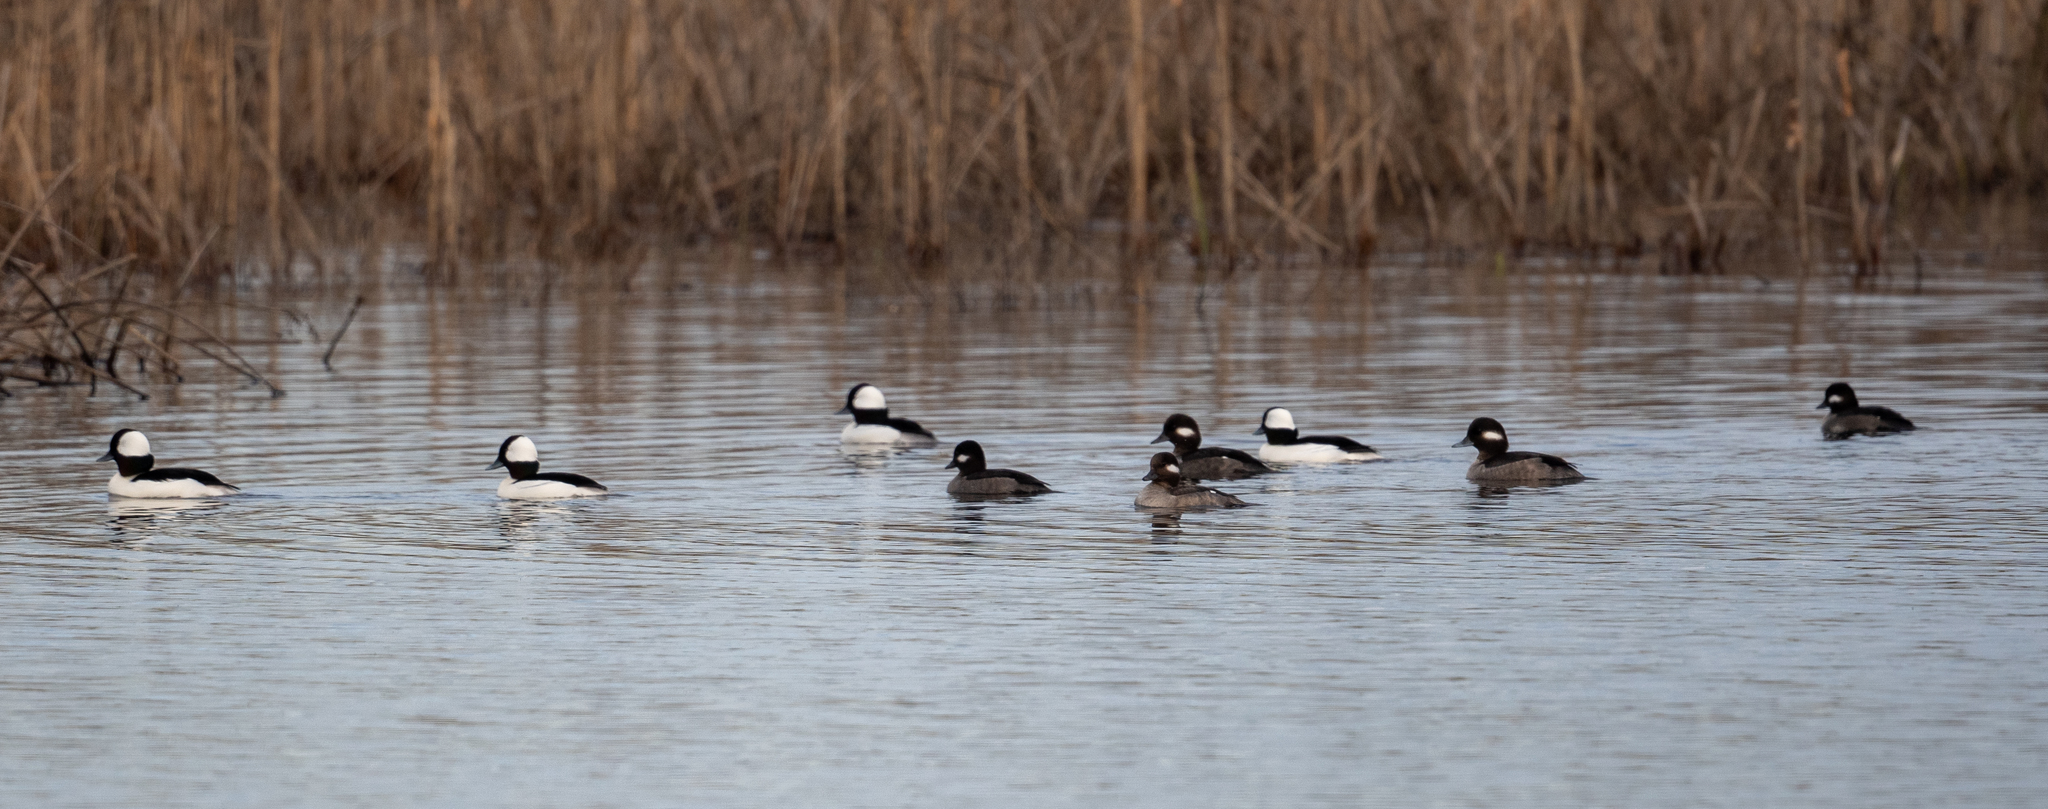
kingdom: Animalia
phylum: Chordata
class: Aves
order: Anseriformes
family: Anatidae
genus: Bucephala
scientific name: Bucephala albeola
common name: Bufflehead
